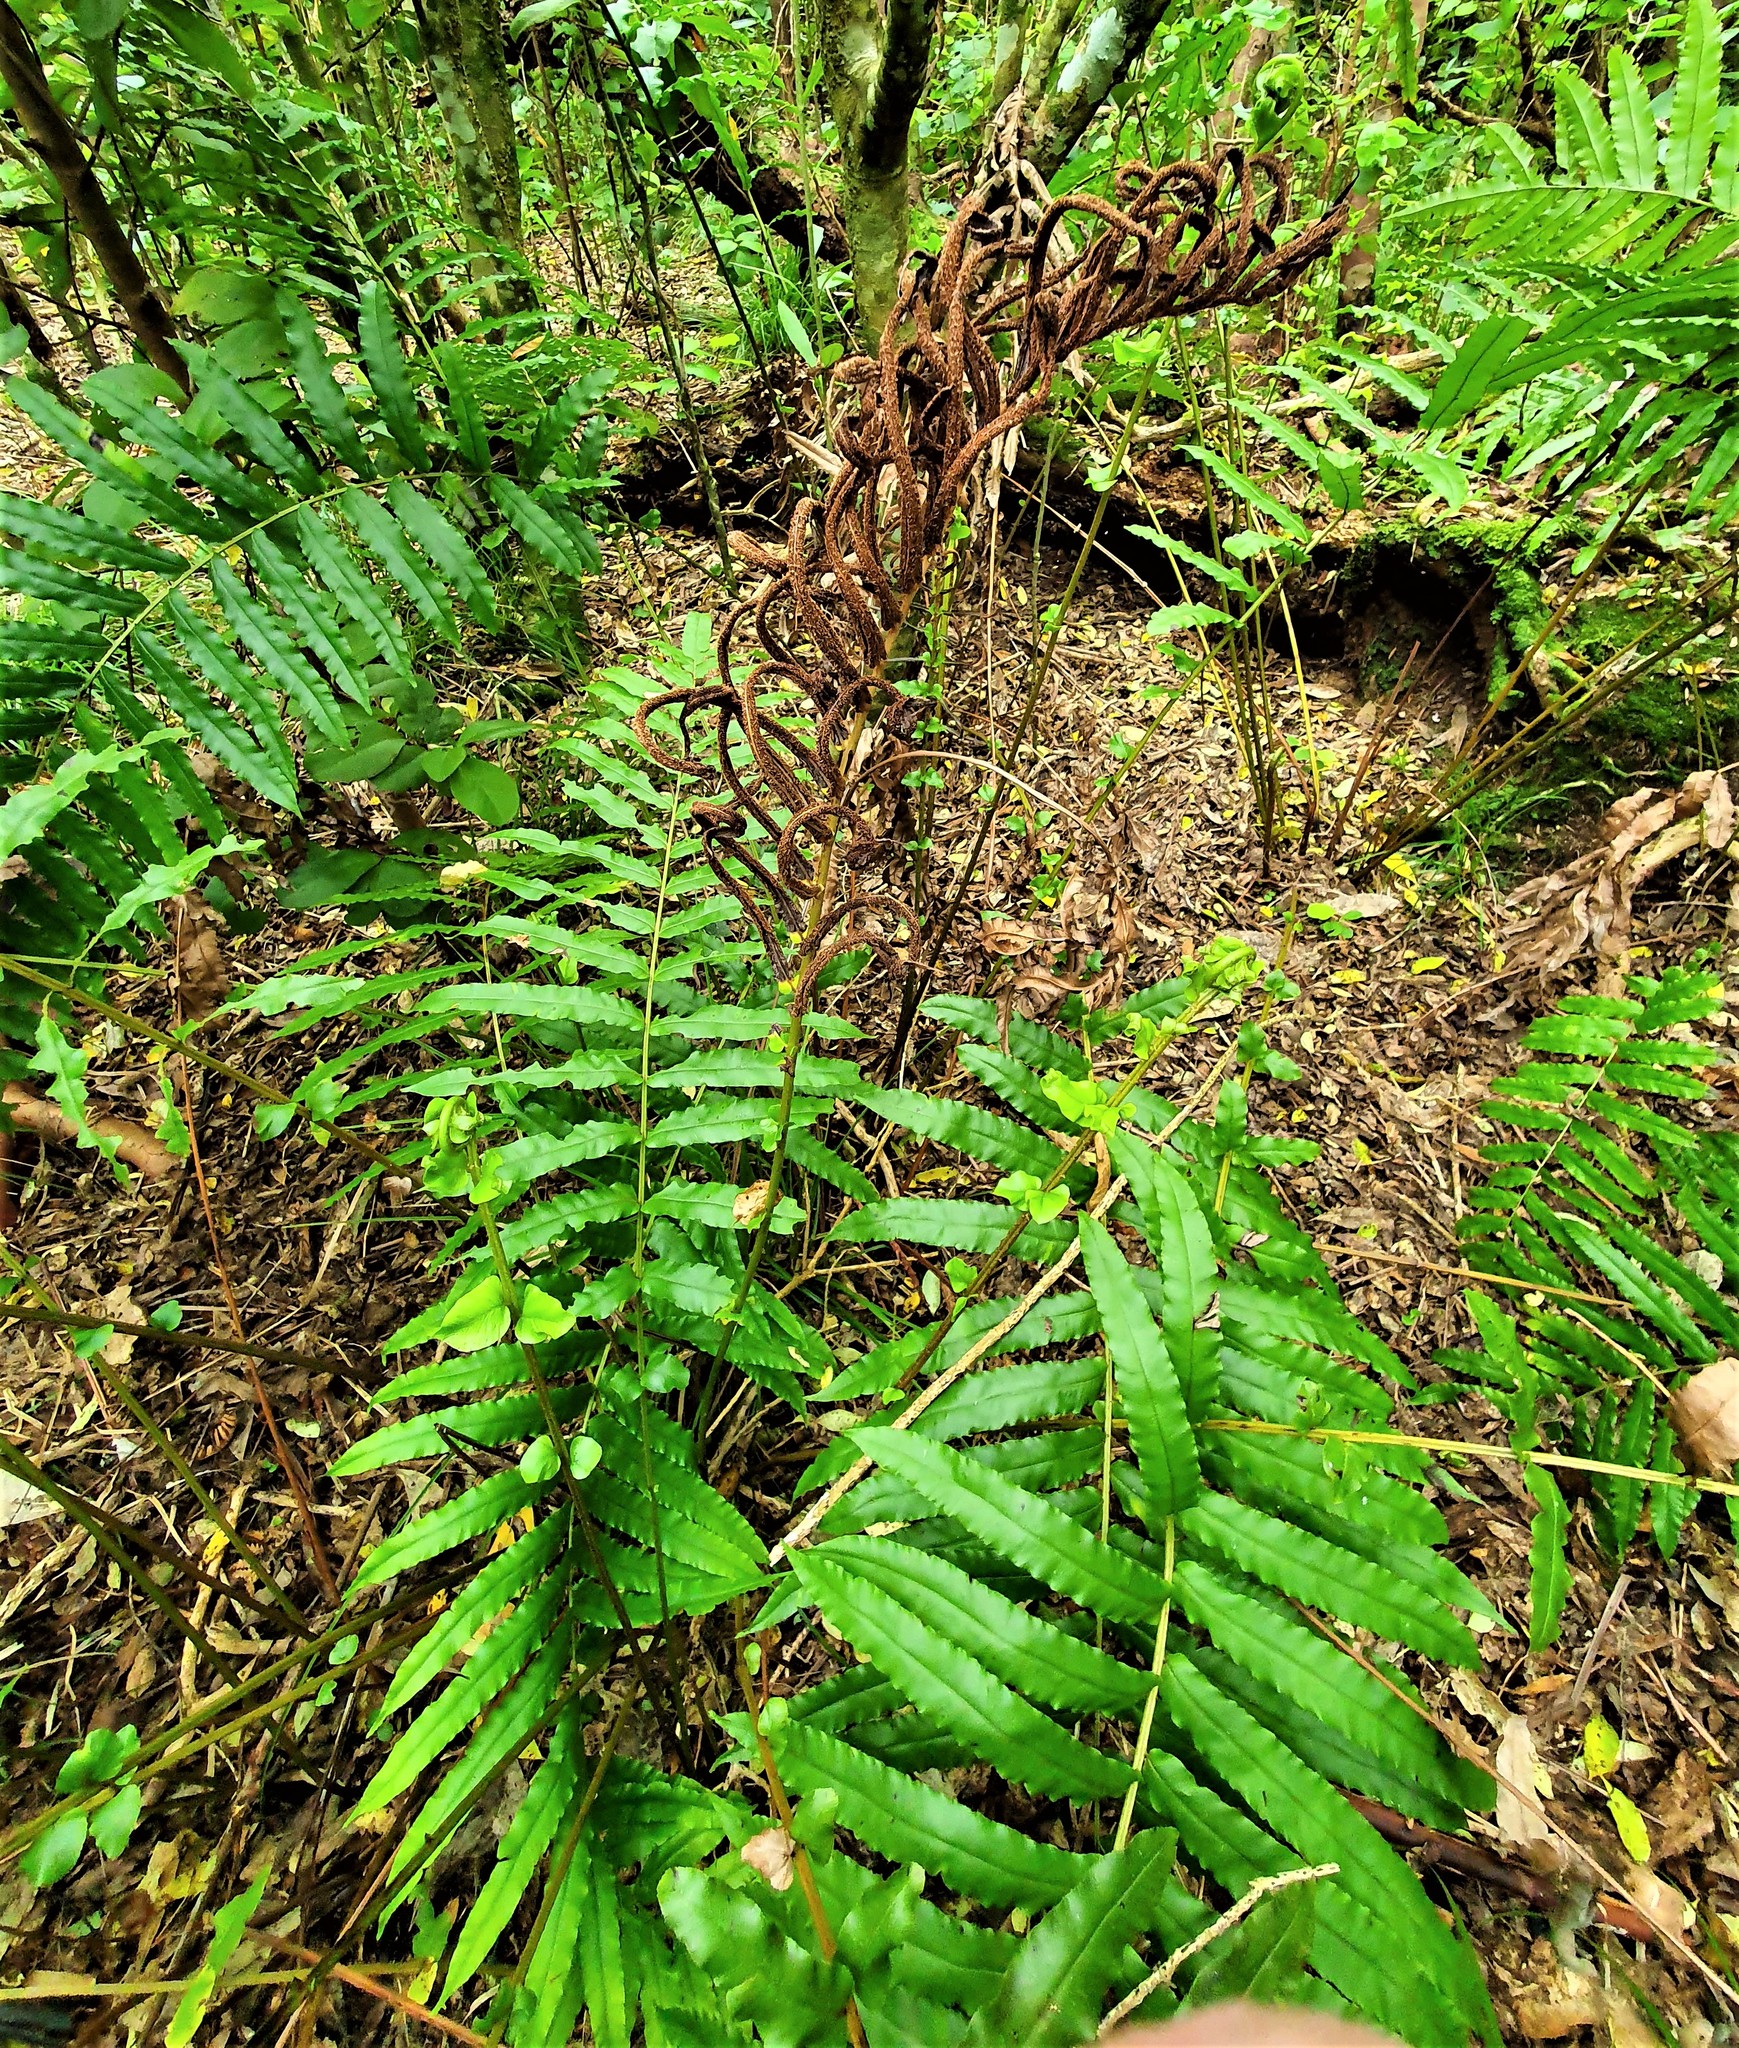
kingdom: Plantae
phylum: Tracheophyta
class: Polypodiopsida
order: Polypodiales
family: Blechnaceae
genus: Parablechnum
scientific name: Parablechnum novae-zelandiae
